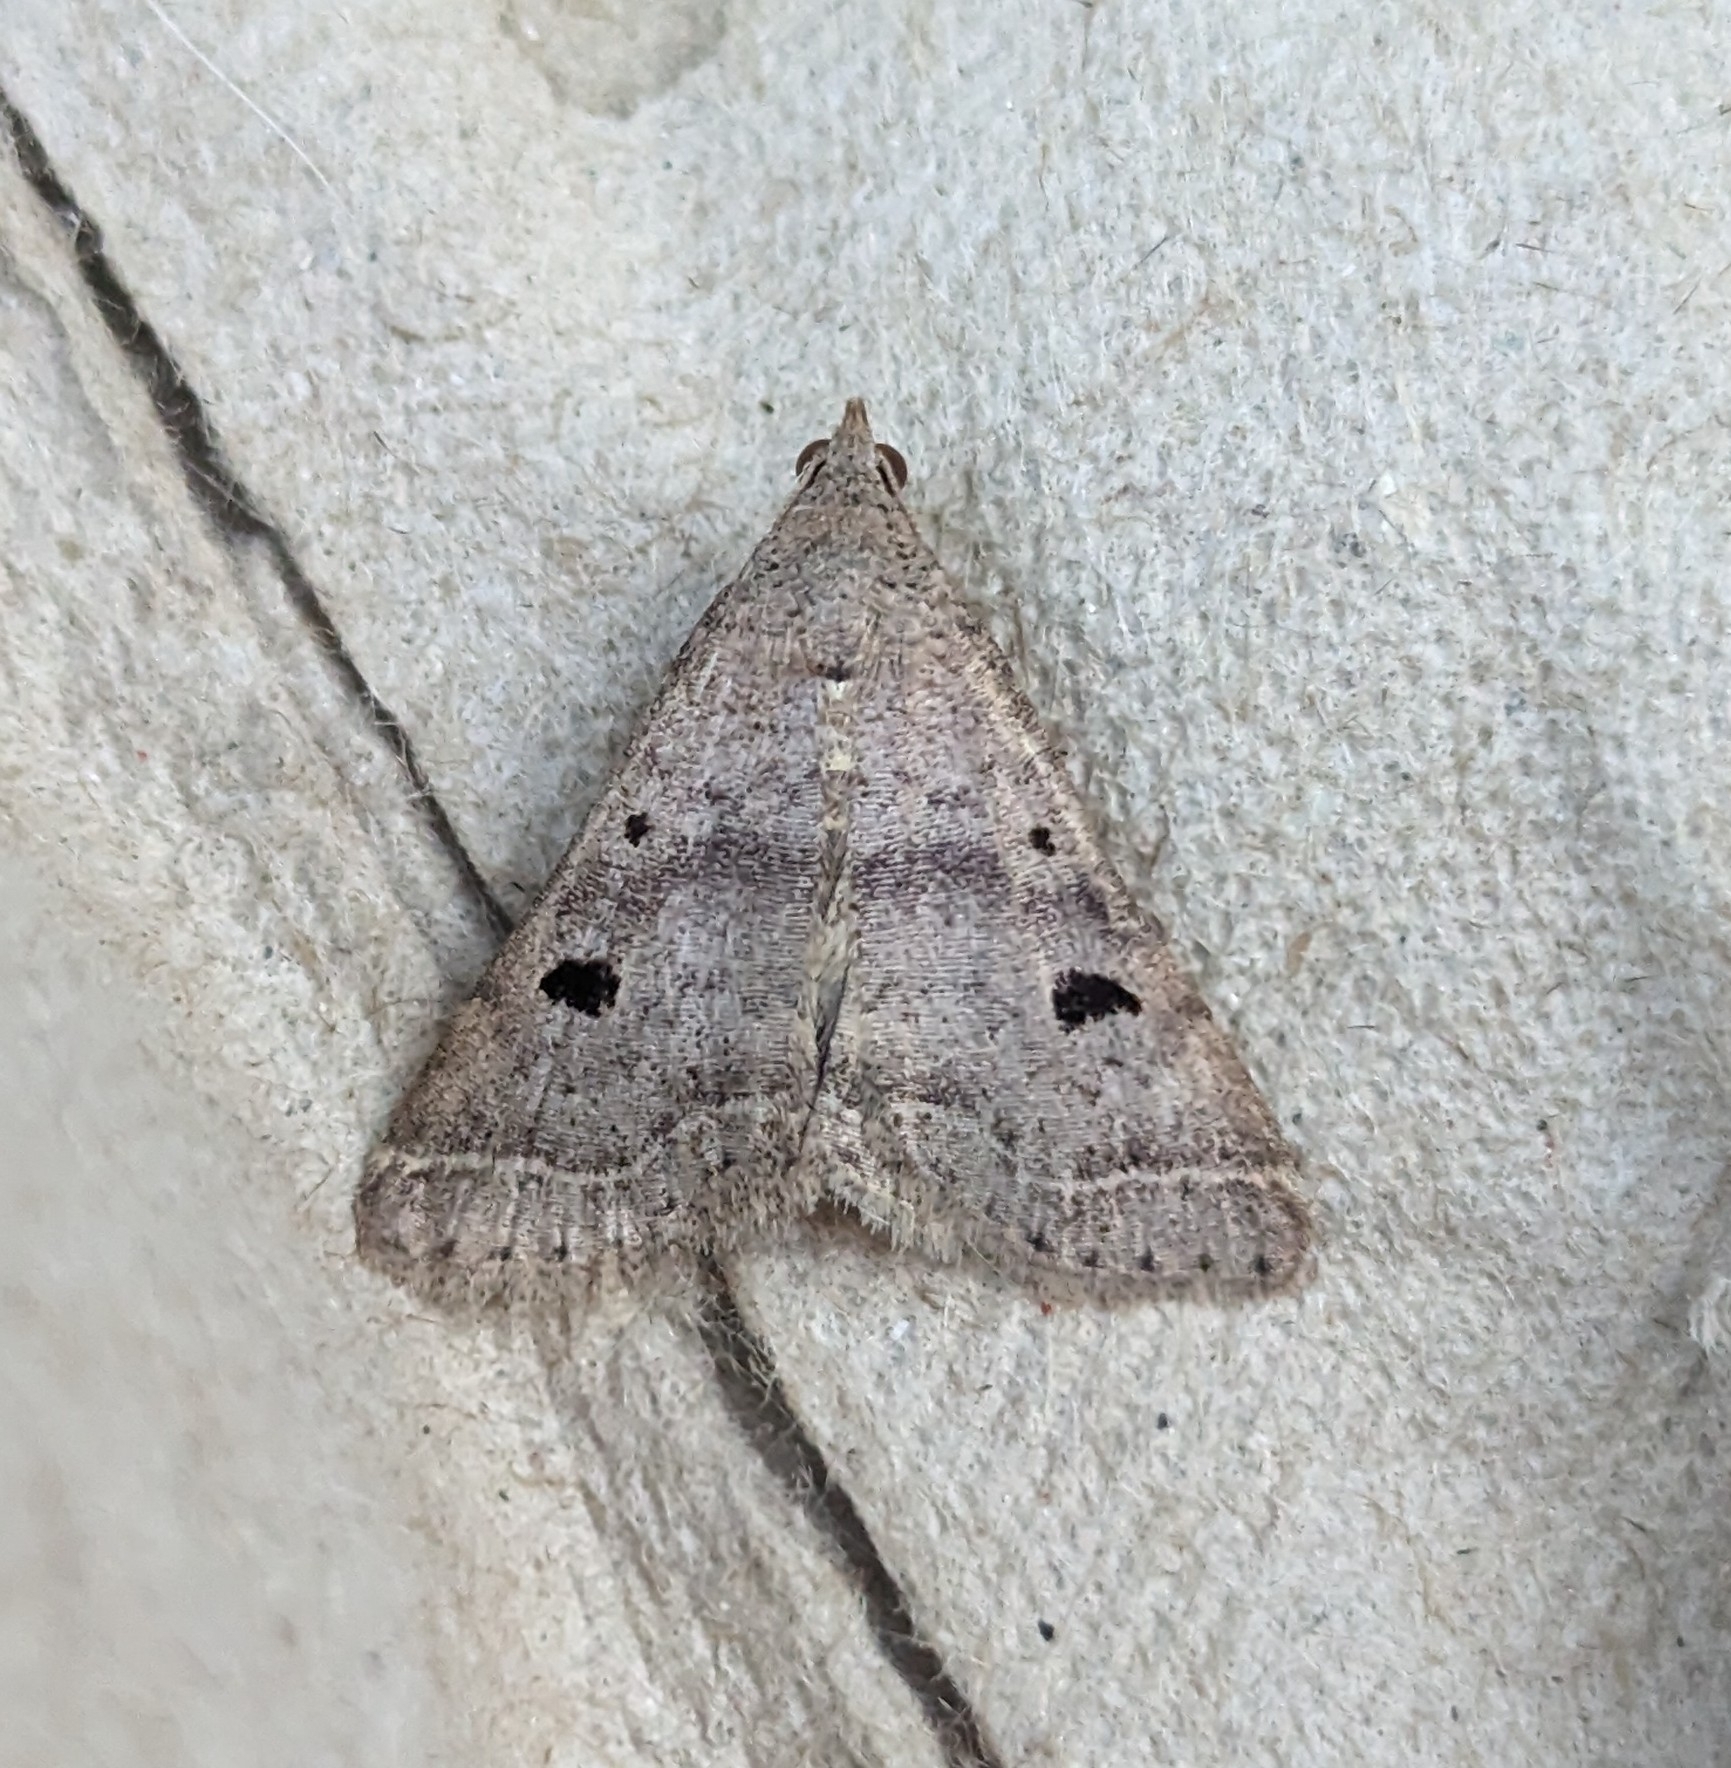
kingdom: Animalia
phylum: Arthropoda
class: Insecta
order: Lepidoptera
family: Erebidae
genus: Bleptina
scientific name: Bleptina caradrinalis
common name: Bent-winged owlet
